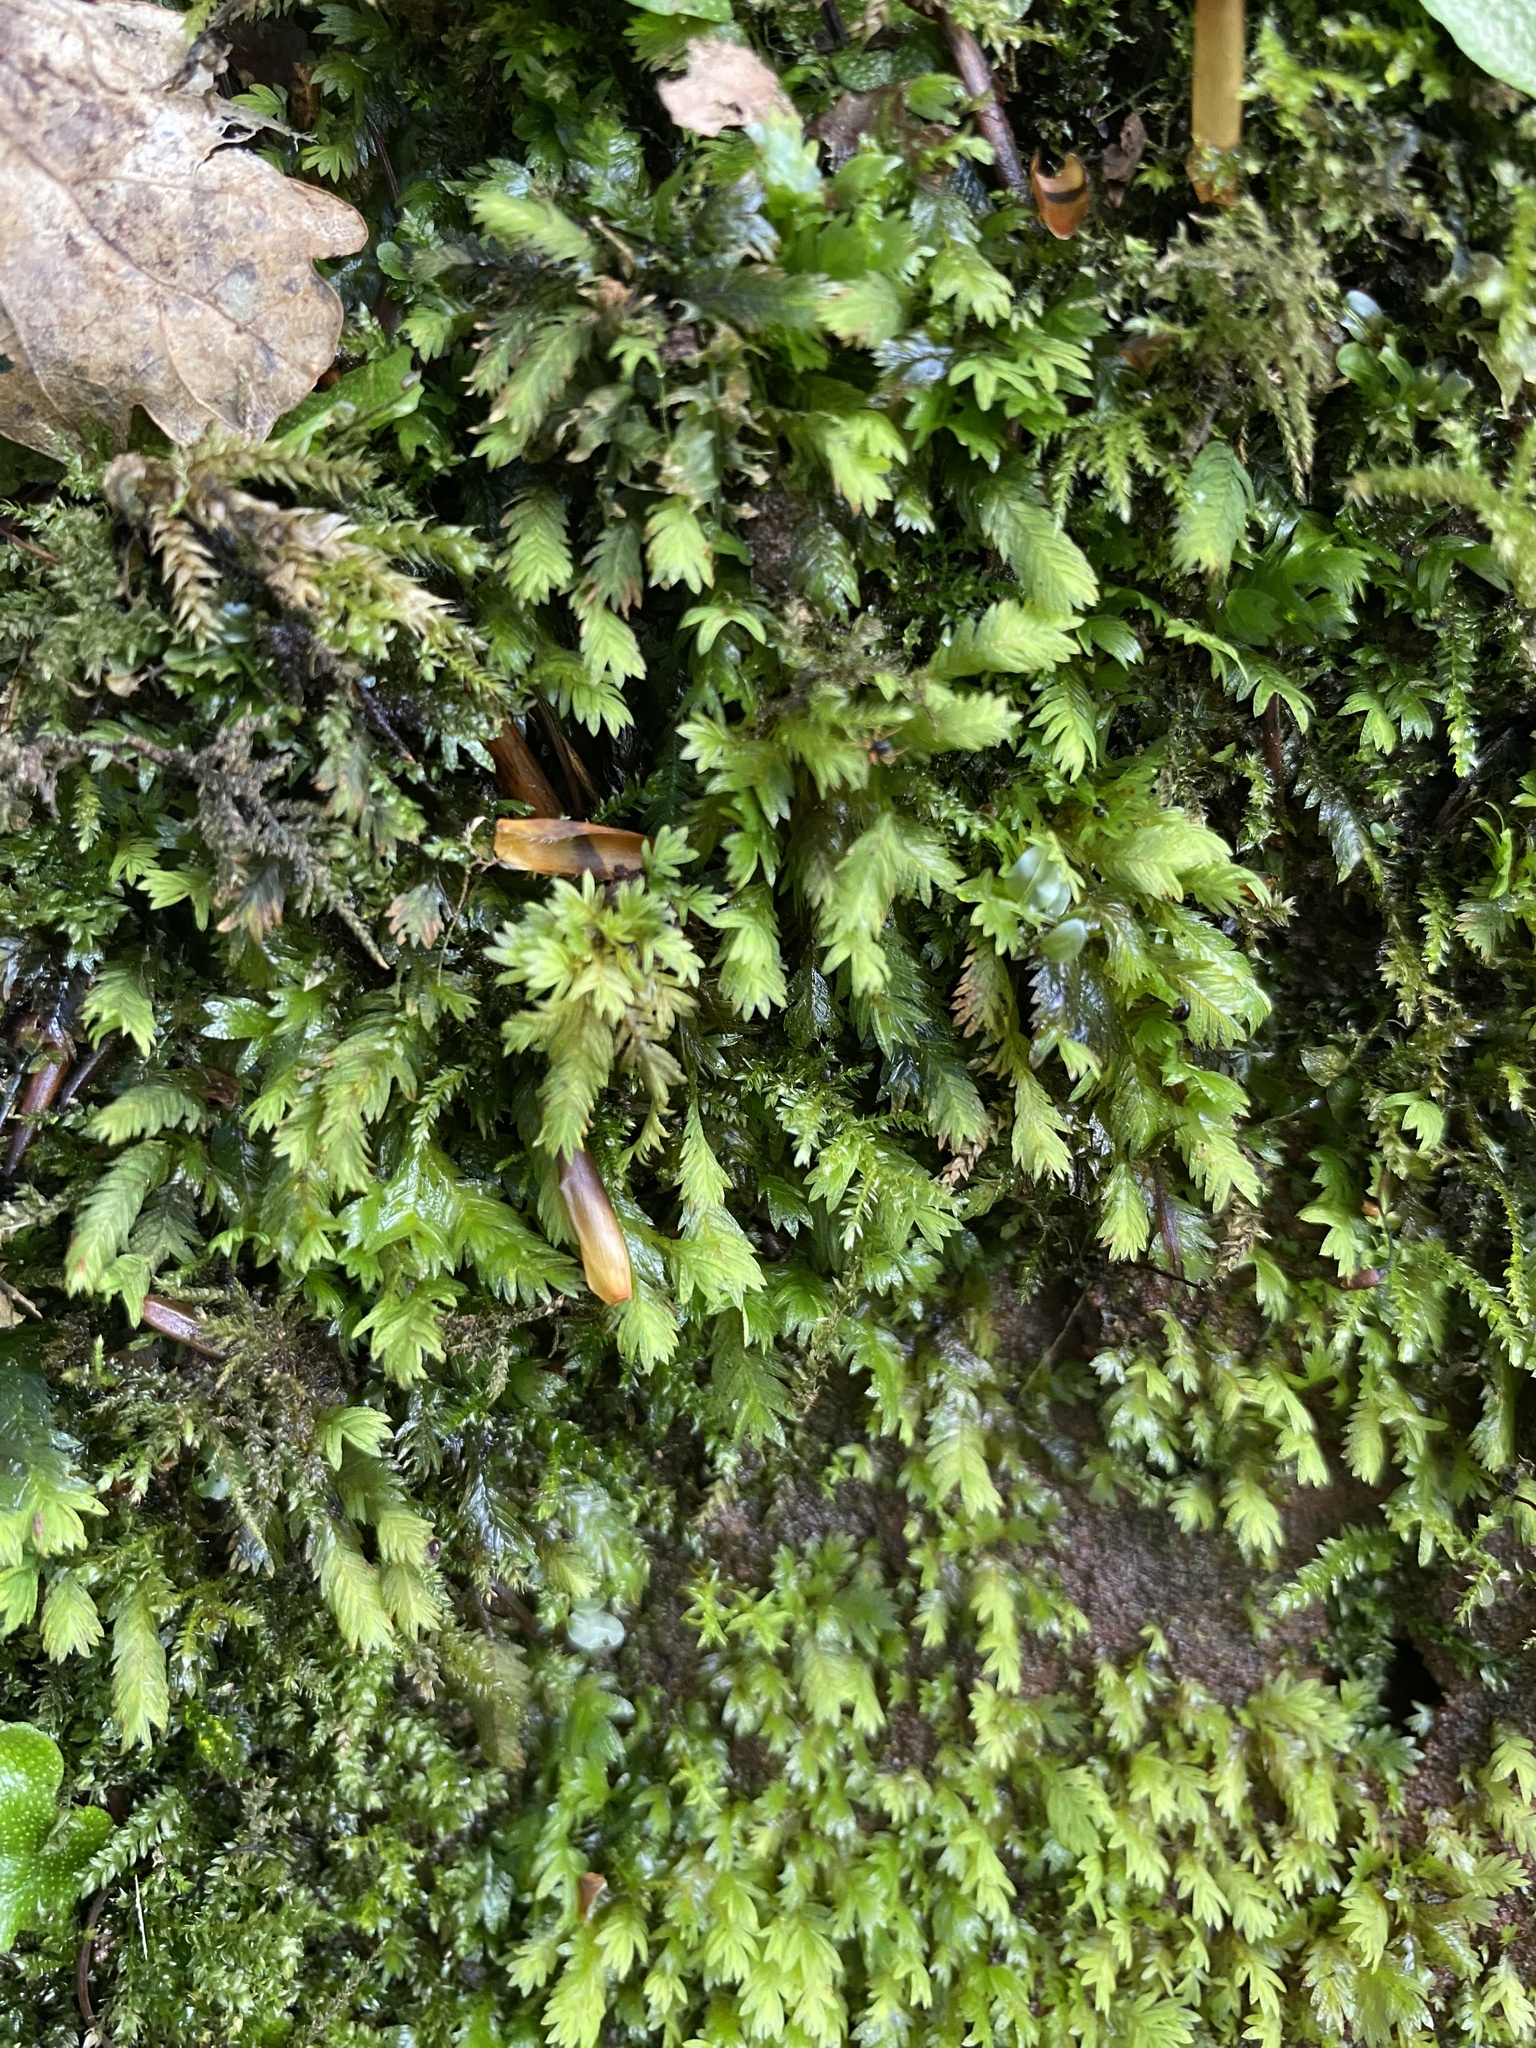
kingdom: Plantae
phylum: Bryophyta
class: Bryopsida
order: Dicranales
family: Fissidentaceae
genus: Fissidens
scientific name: Fissidens taxifolius
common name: Yew-leaved pocket moss
